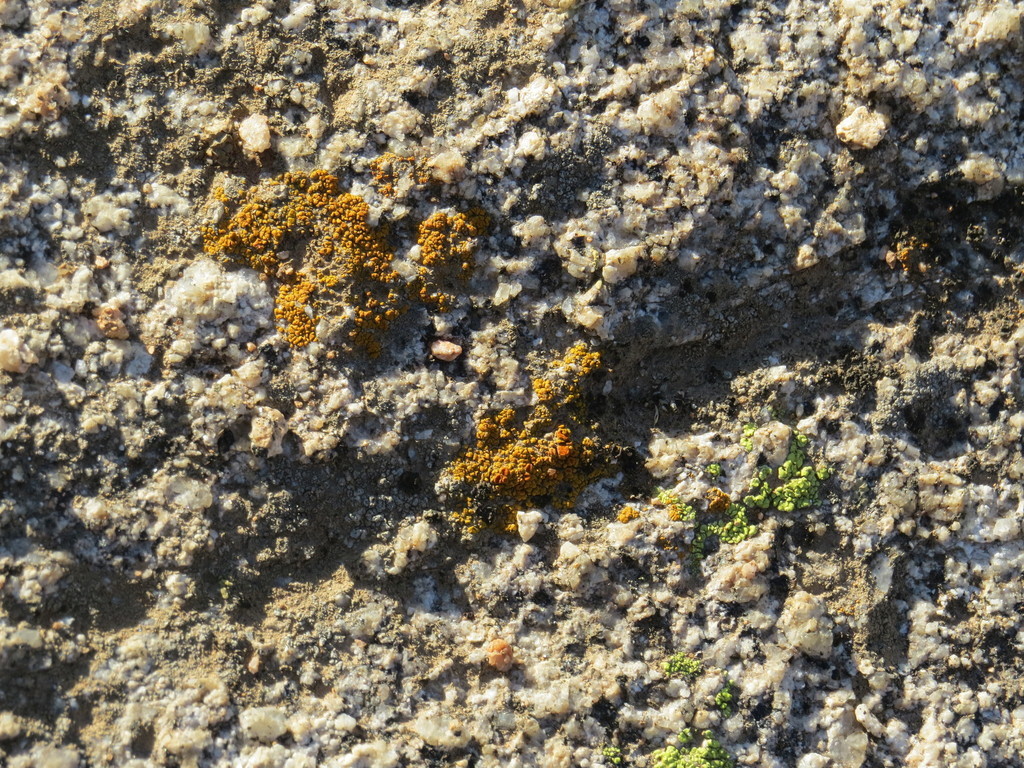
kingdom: Fungi
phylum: Ascomycota
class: Lecanoromycetes
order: Acarosporales
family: Acarosporaceae
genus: Acarospora
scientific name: Acarospora socialis
